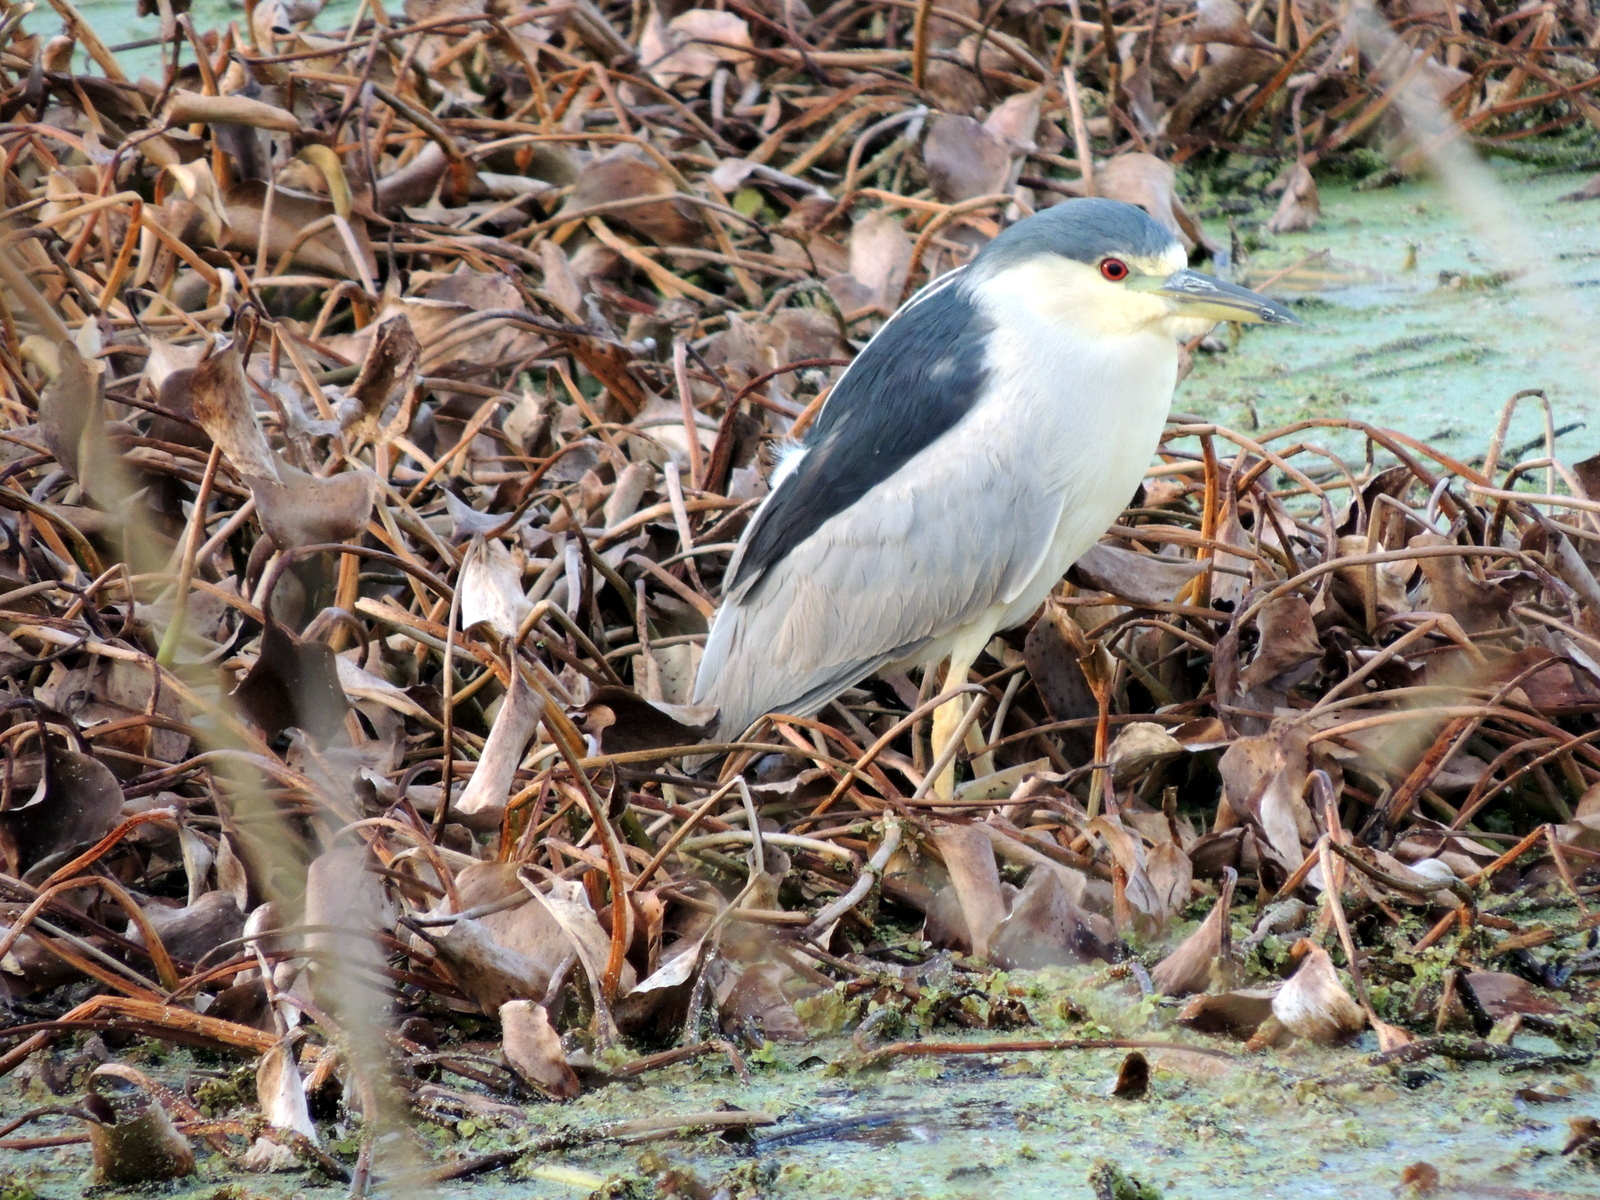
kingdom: Animalia
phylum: Chordata
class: Aves
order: Pelecaniformes
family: Ardeidae
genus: Nycticorax
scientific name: Nycticorax nycticorax
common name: Black-crowned night heron
